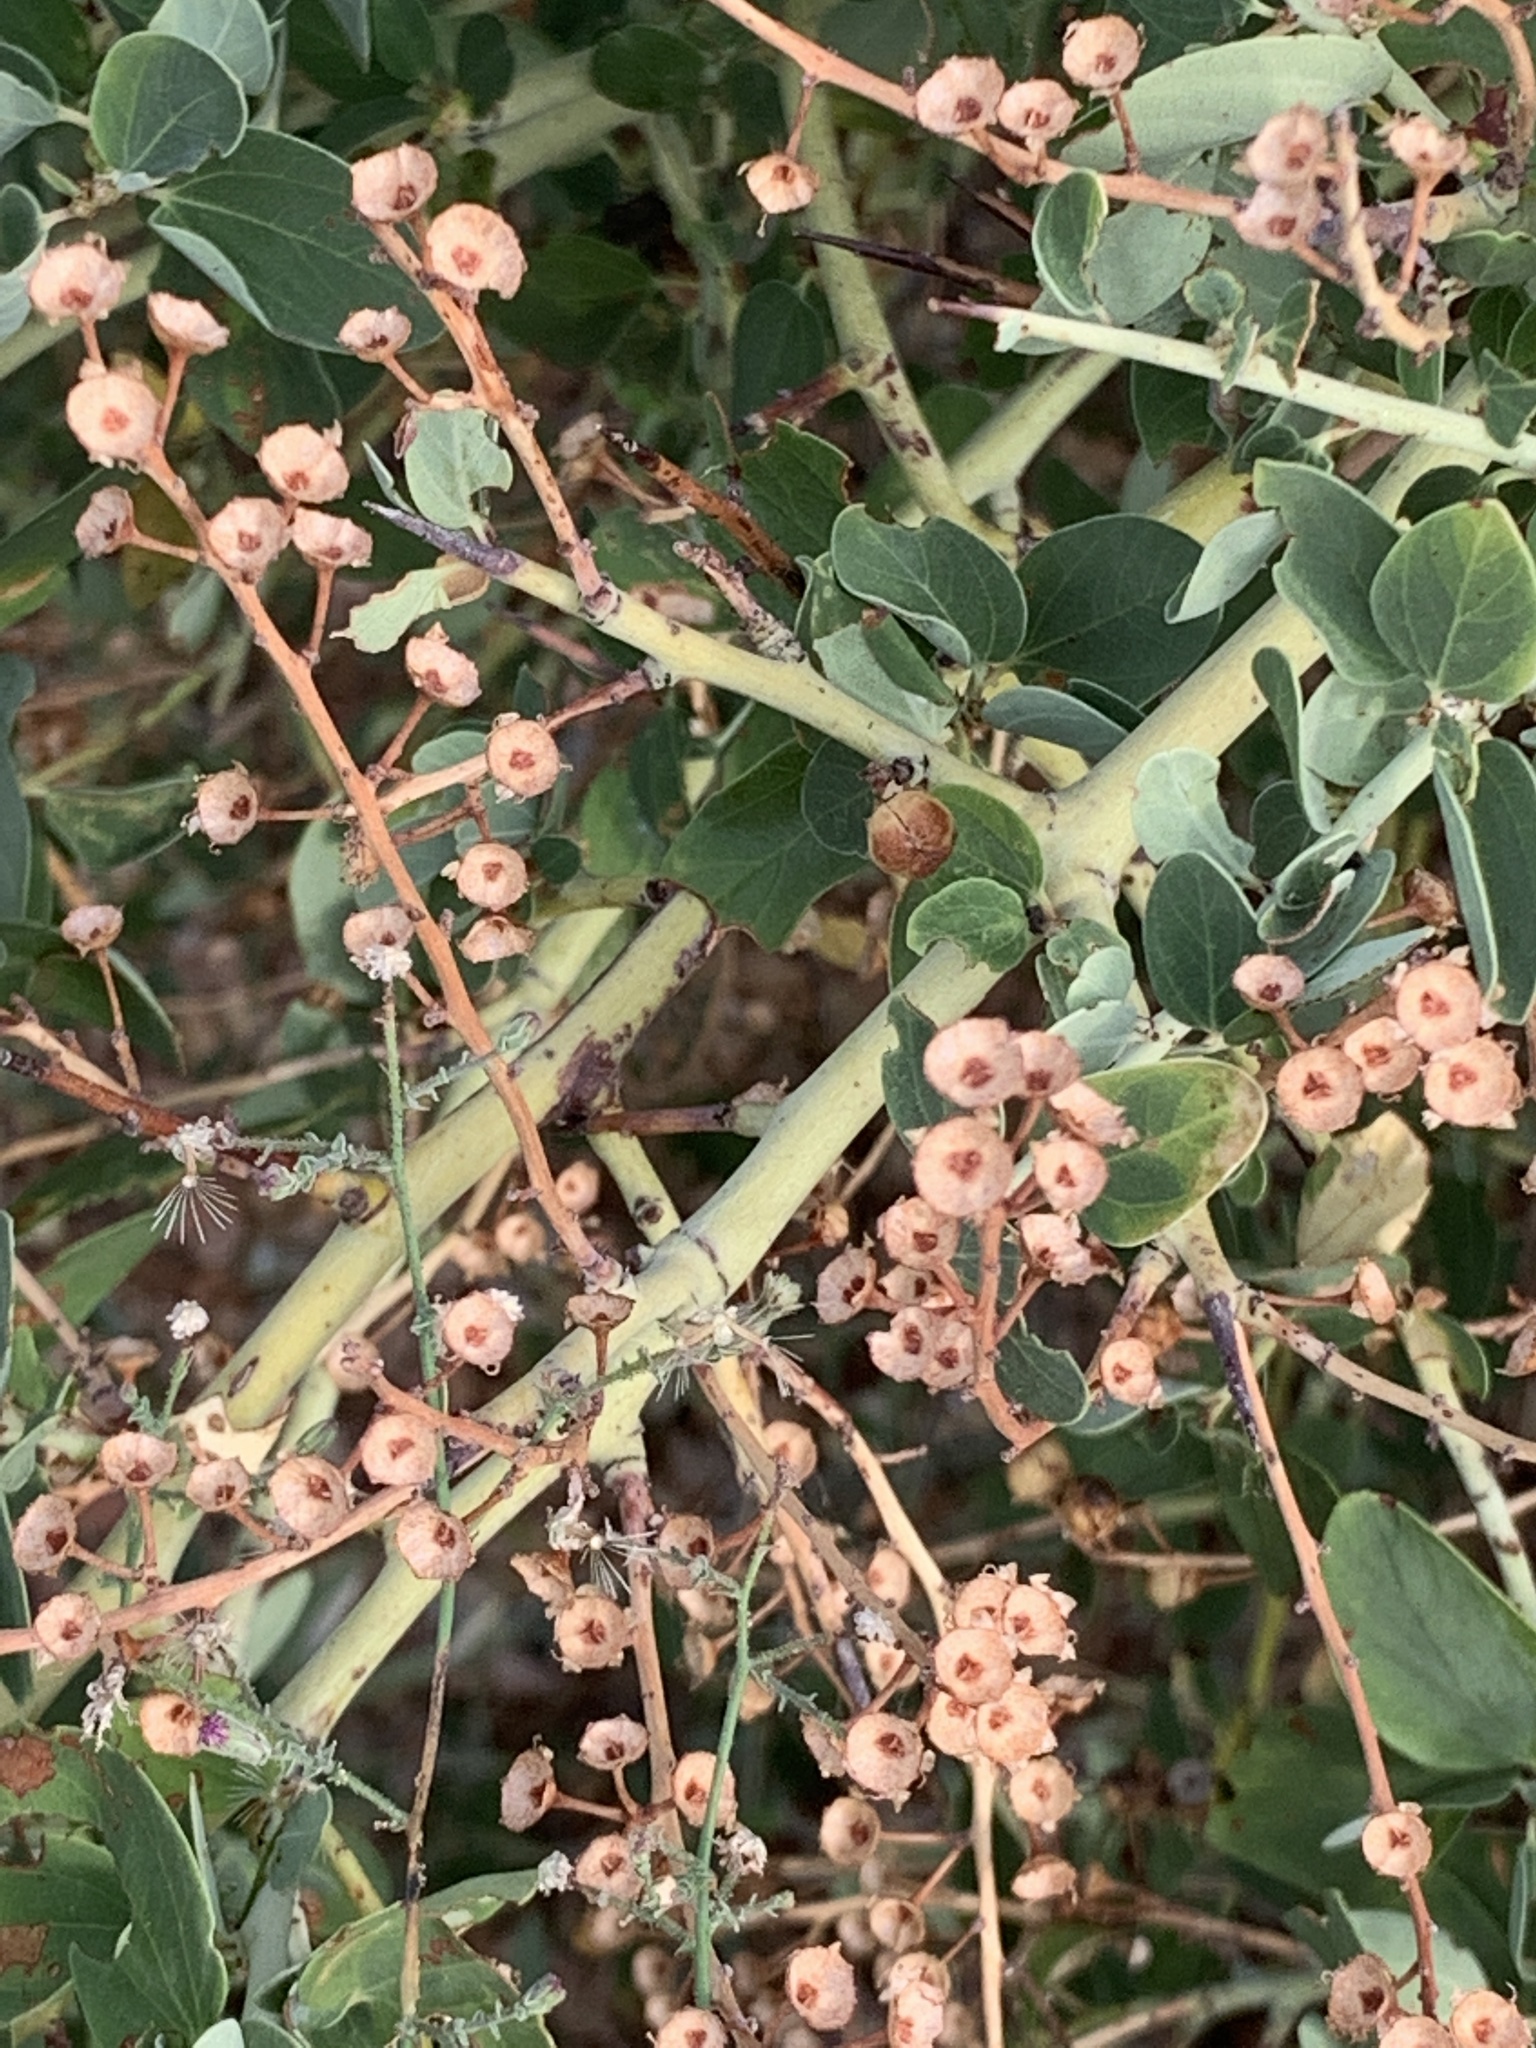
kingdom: Plantae
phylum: Tracheophyta
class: Magnoliopsida
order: Rosales
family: Rhamnaceae
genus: Ceanothus
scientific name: Ceanothus leucodermis
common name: Chaparral whitethorn
